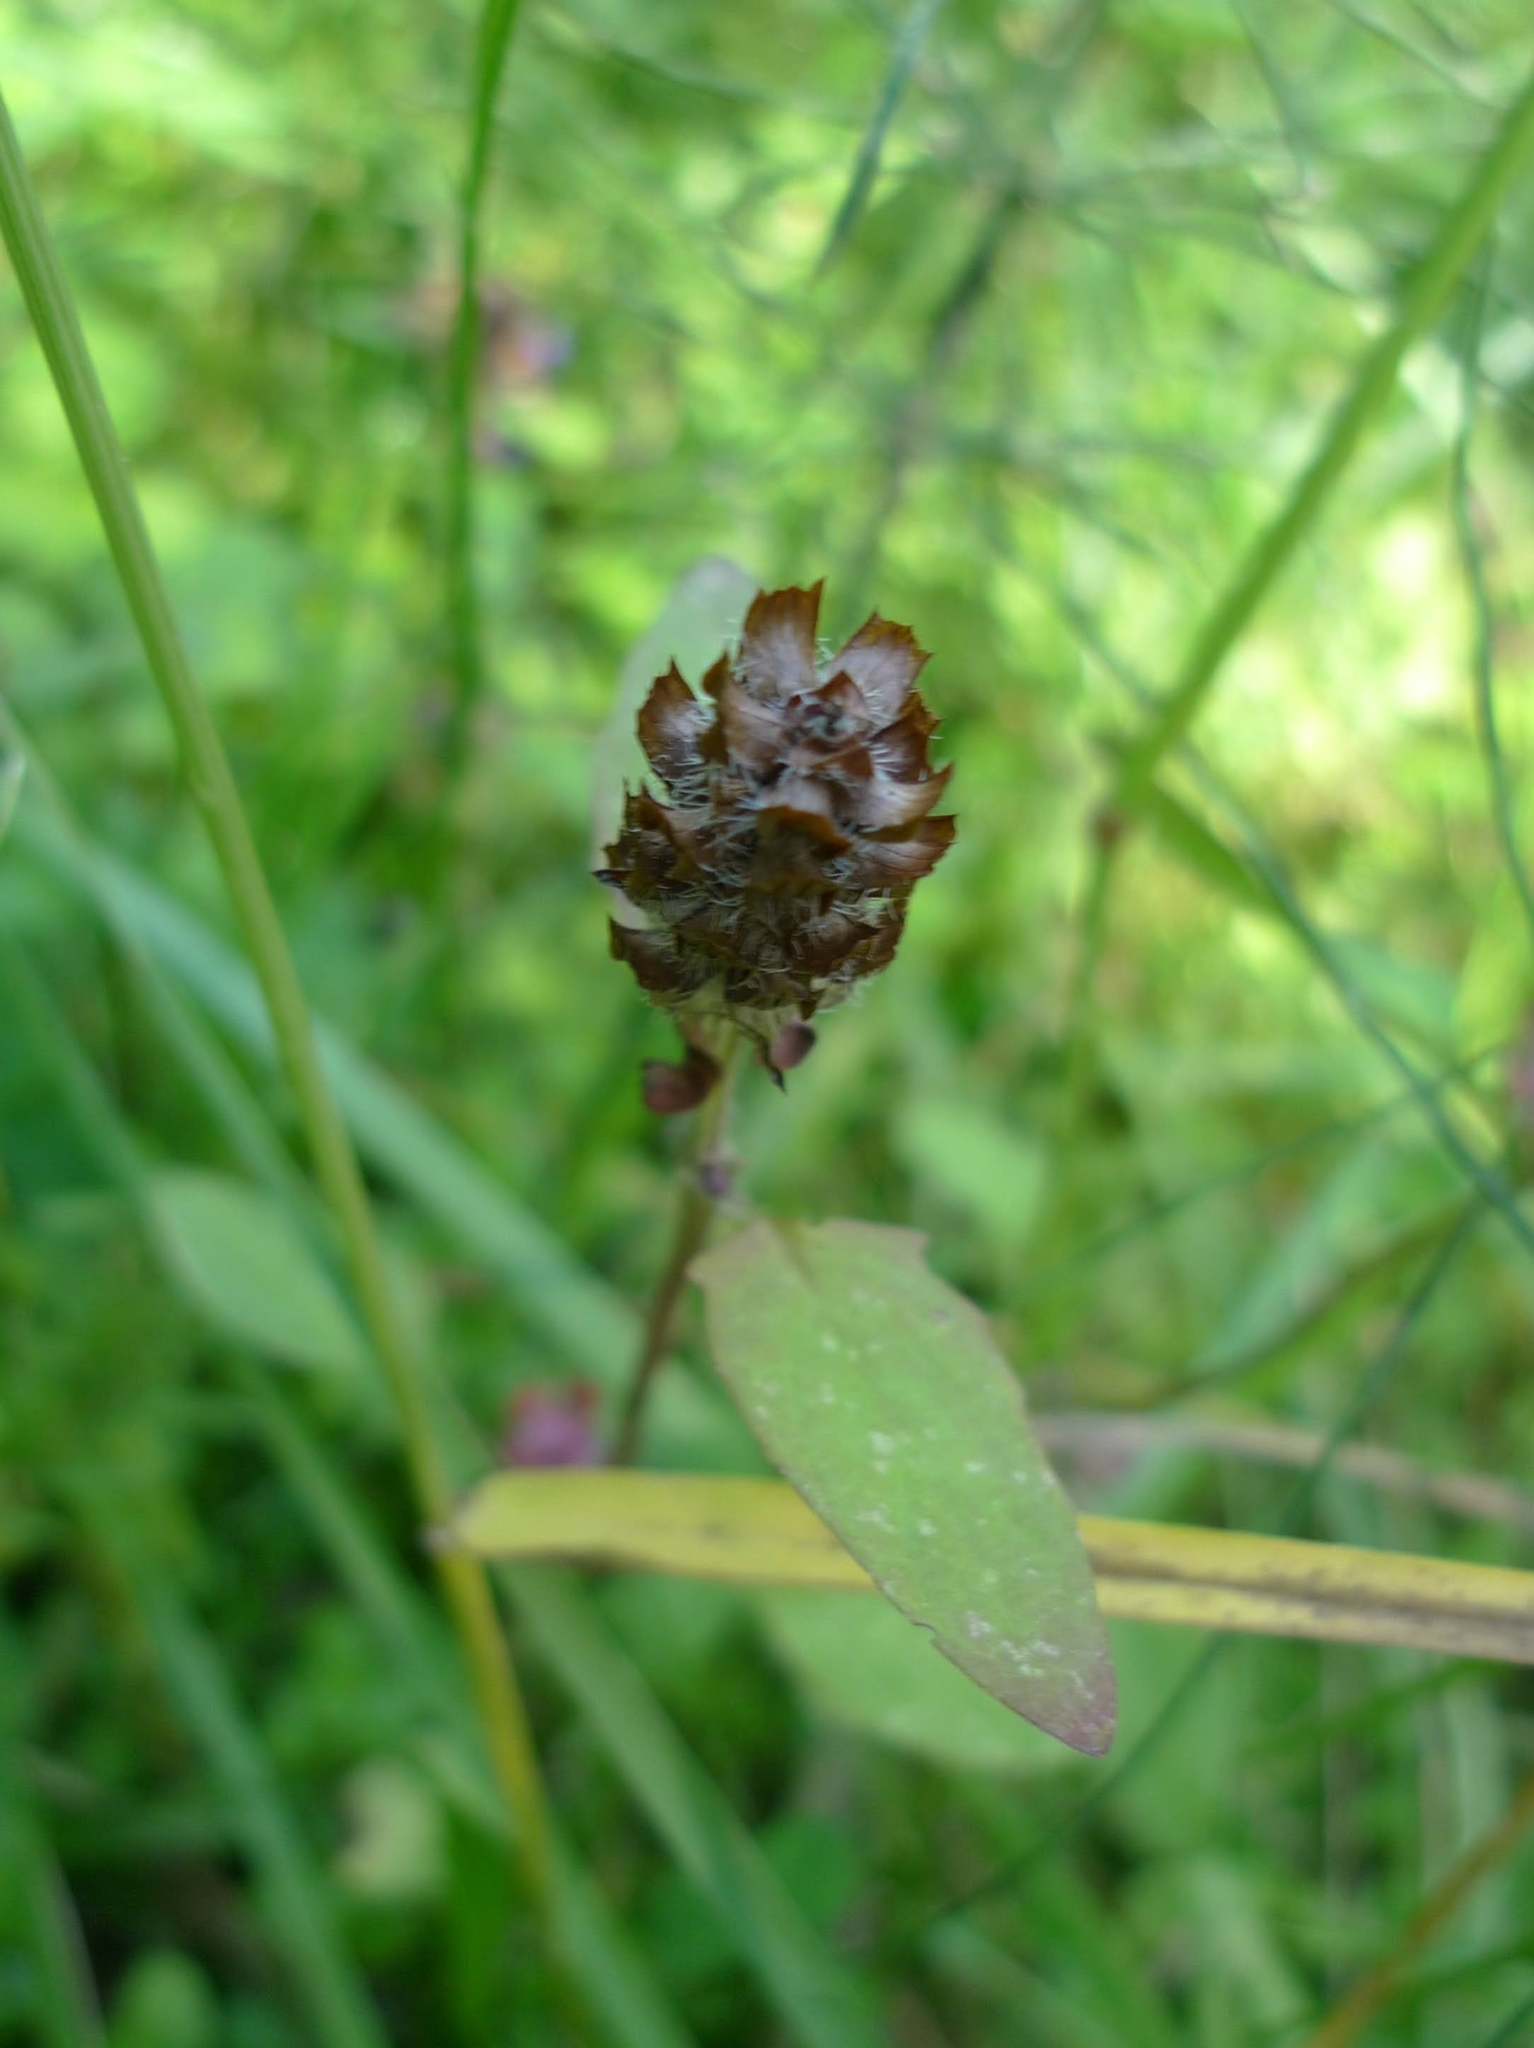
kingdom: Plantae
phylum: Tracheophyta
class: Magnoliopsida
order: Lamiales
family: Lamiaceae
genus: Prunella
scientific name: Prunella vulgaris
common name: Heal-all
